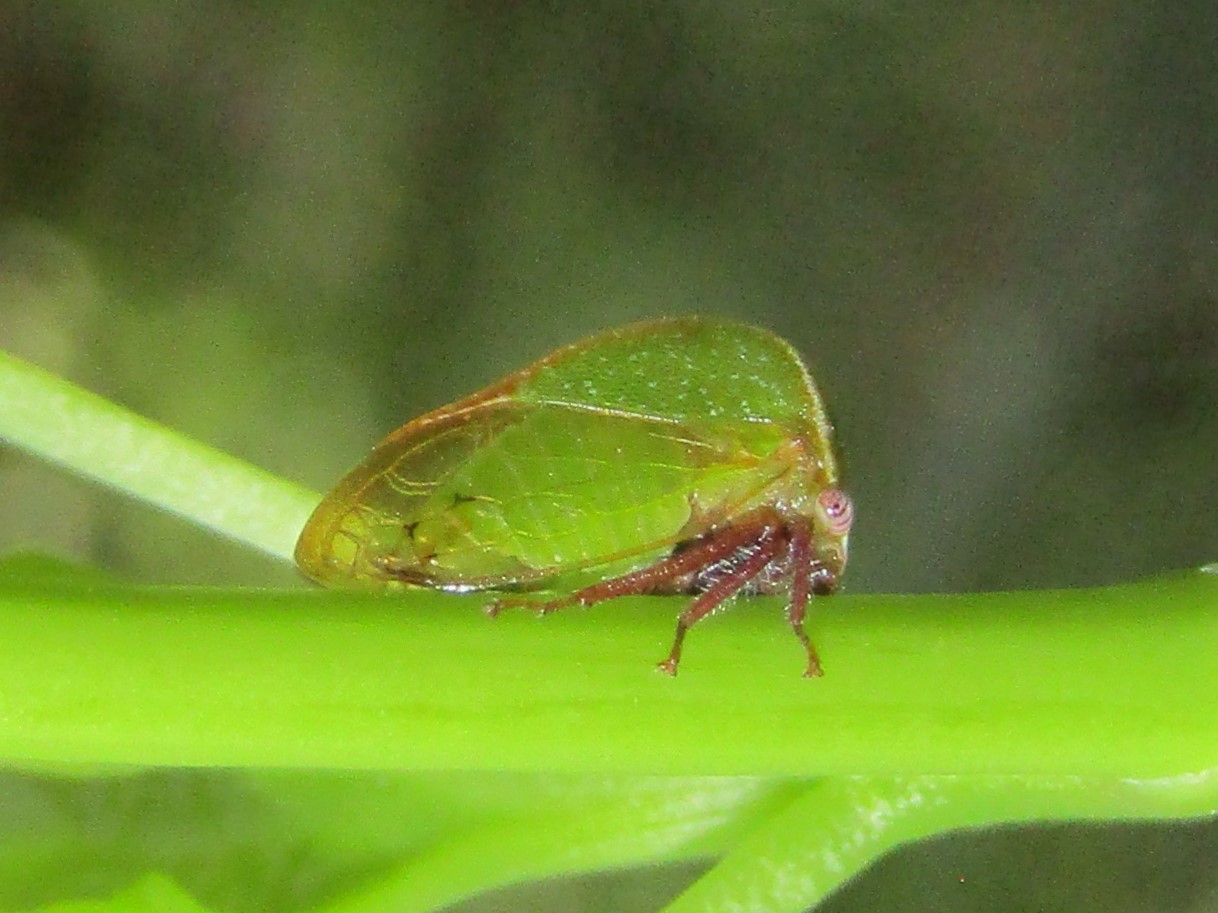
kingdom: Animalia
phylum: Arthropoda
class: Insecta
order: Hemiptera
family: Membracidae
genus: Stictocephala
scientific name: Stictocephala lutea
